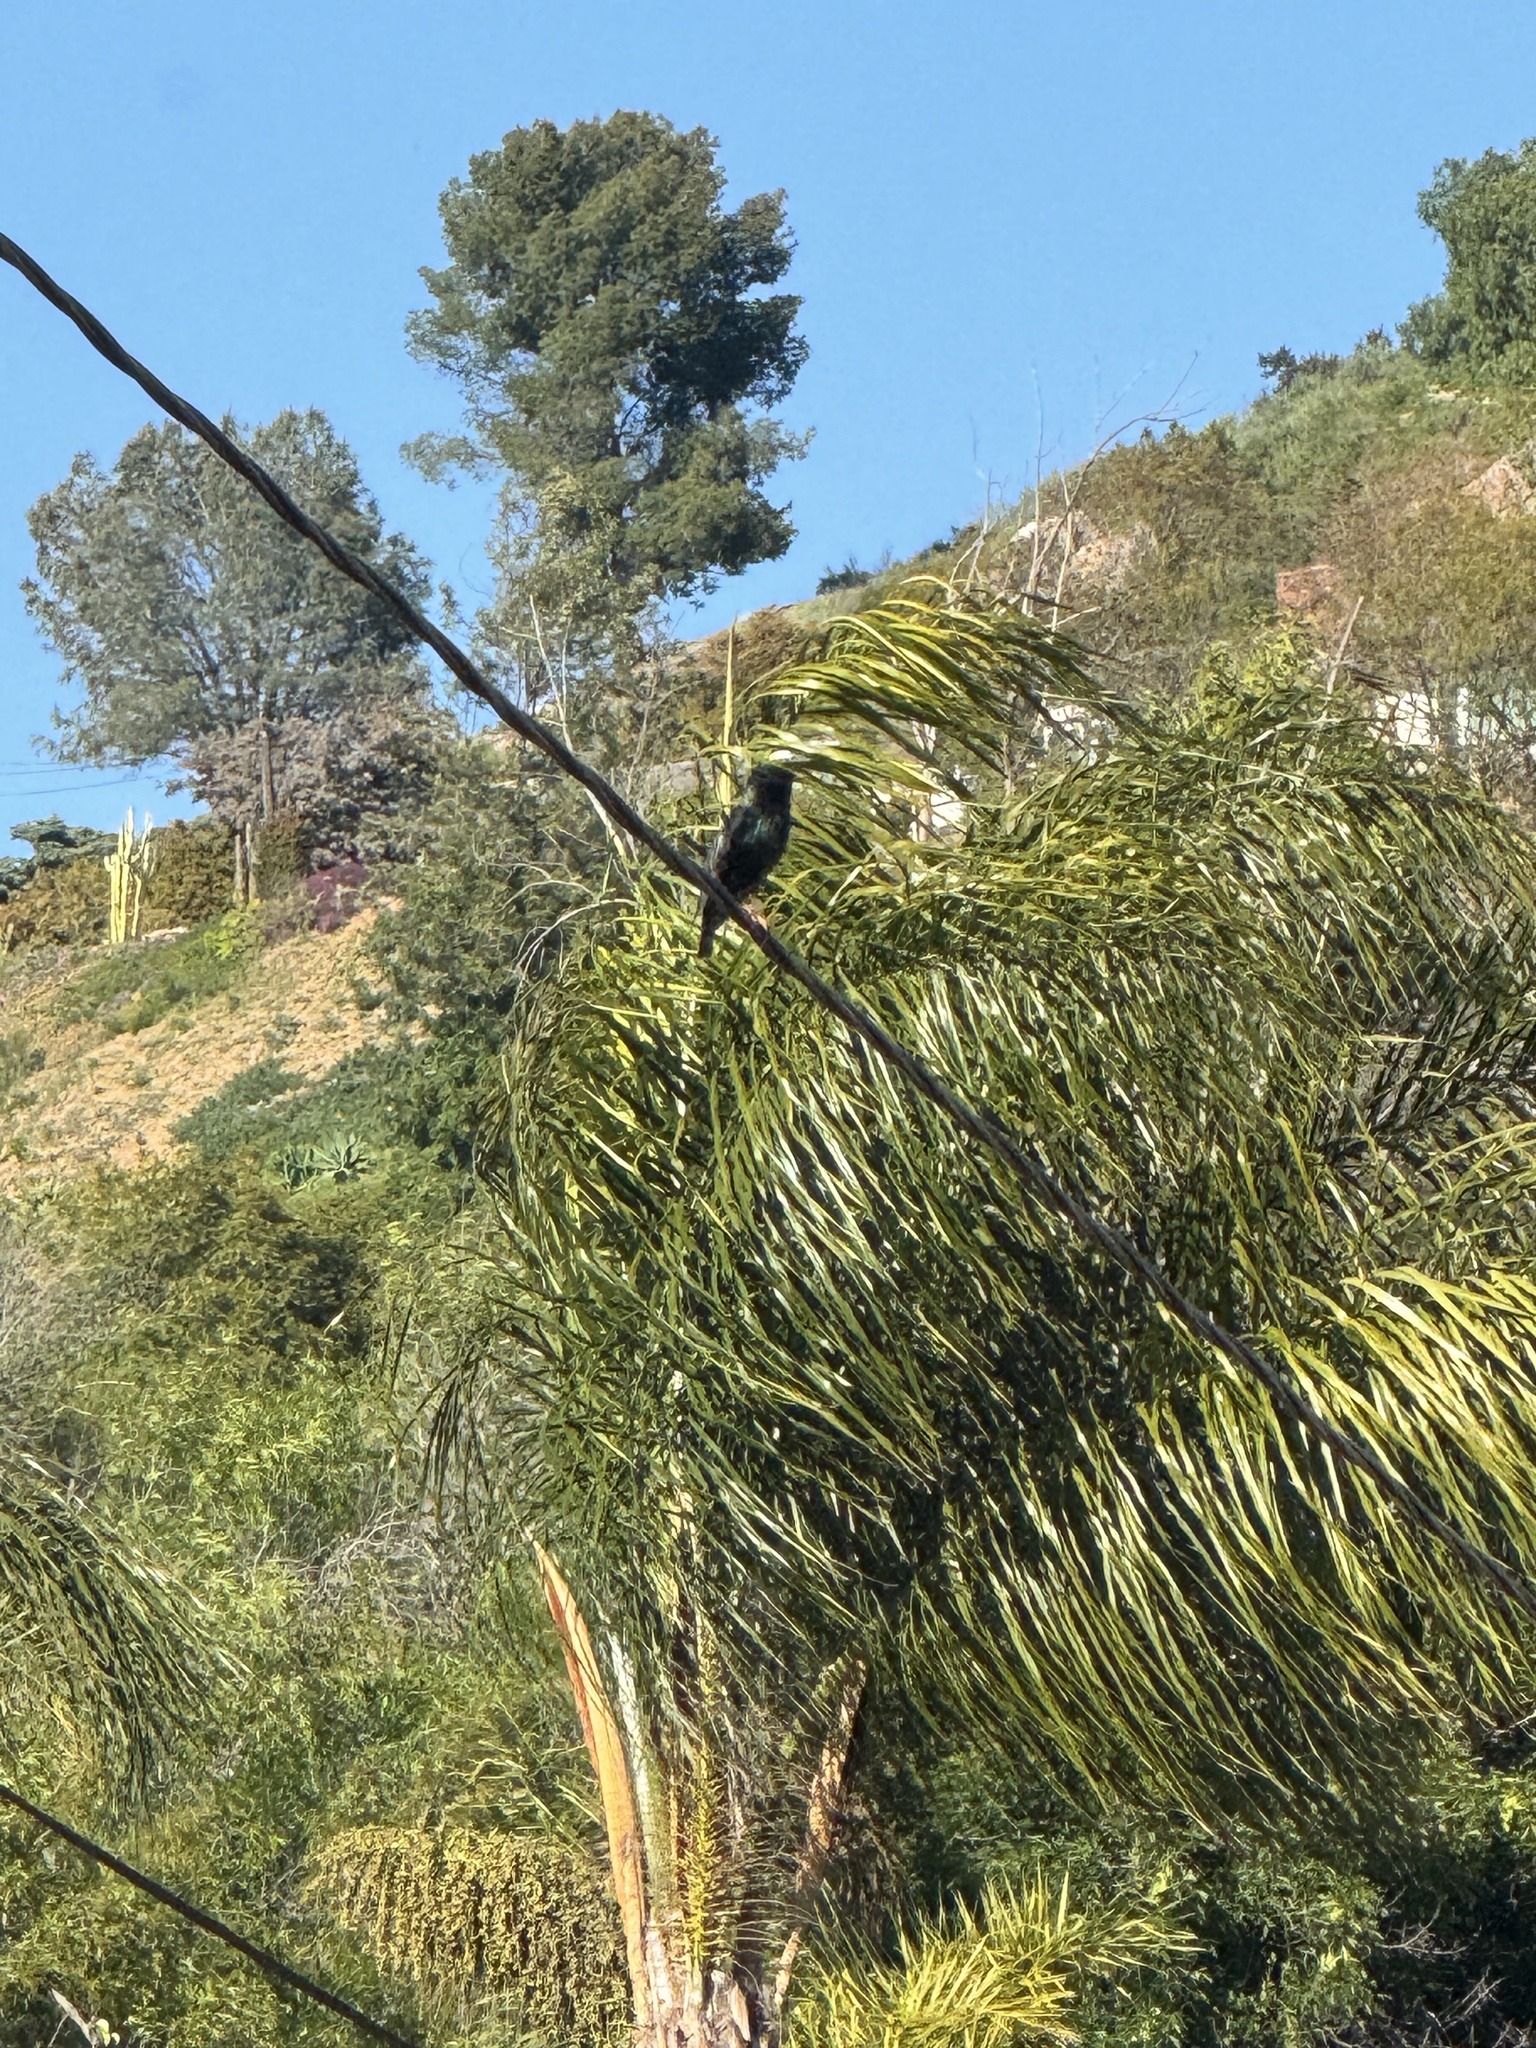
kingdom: Animalia
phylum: Chordata
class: Aves
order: Passeriformes
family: Sturnidae
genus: Sturnus
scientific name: Sturnus vulgaris
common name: Common starling
